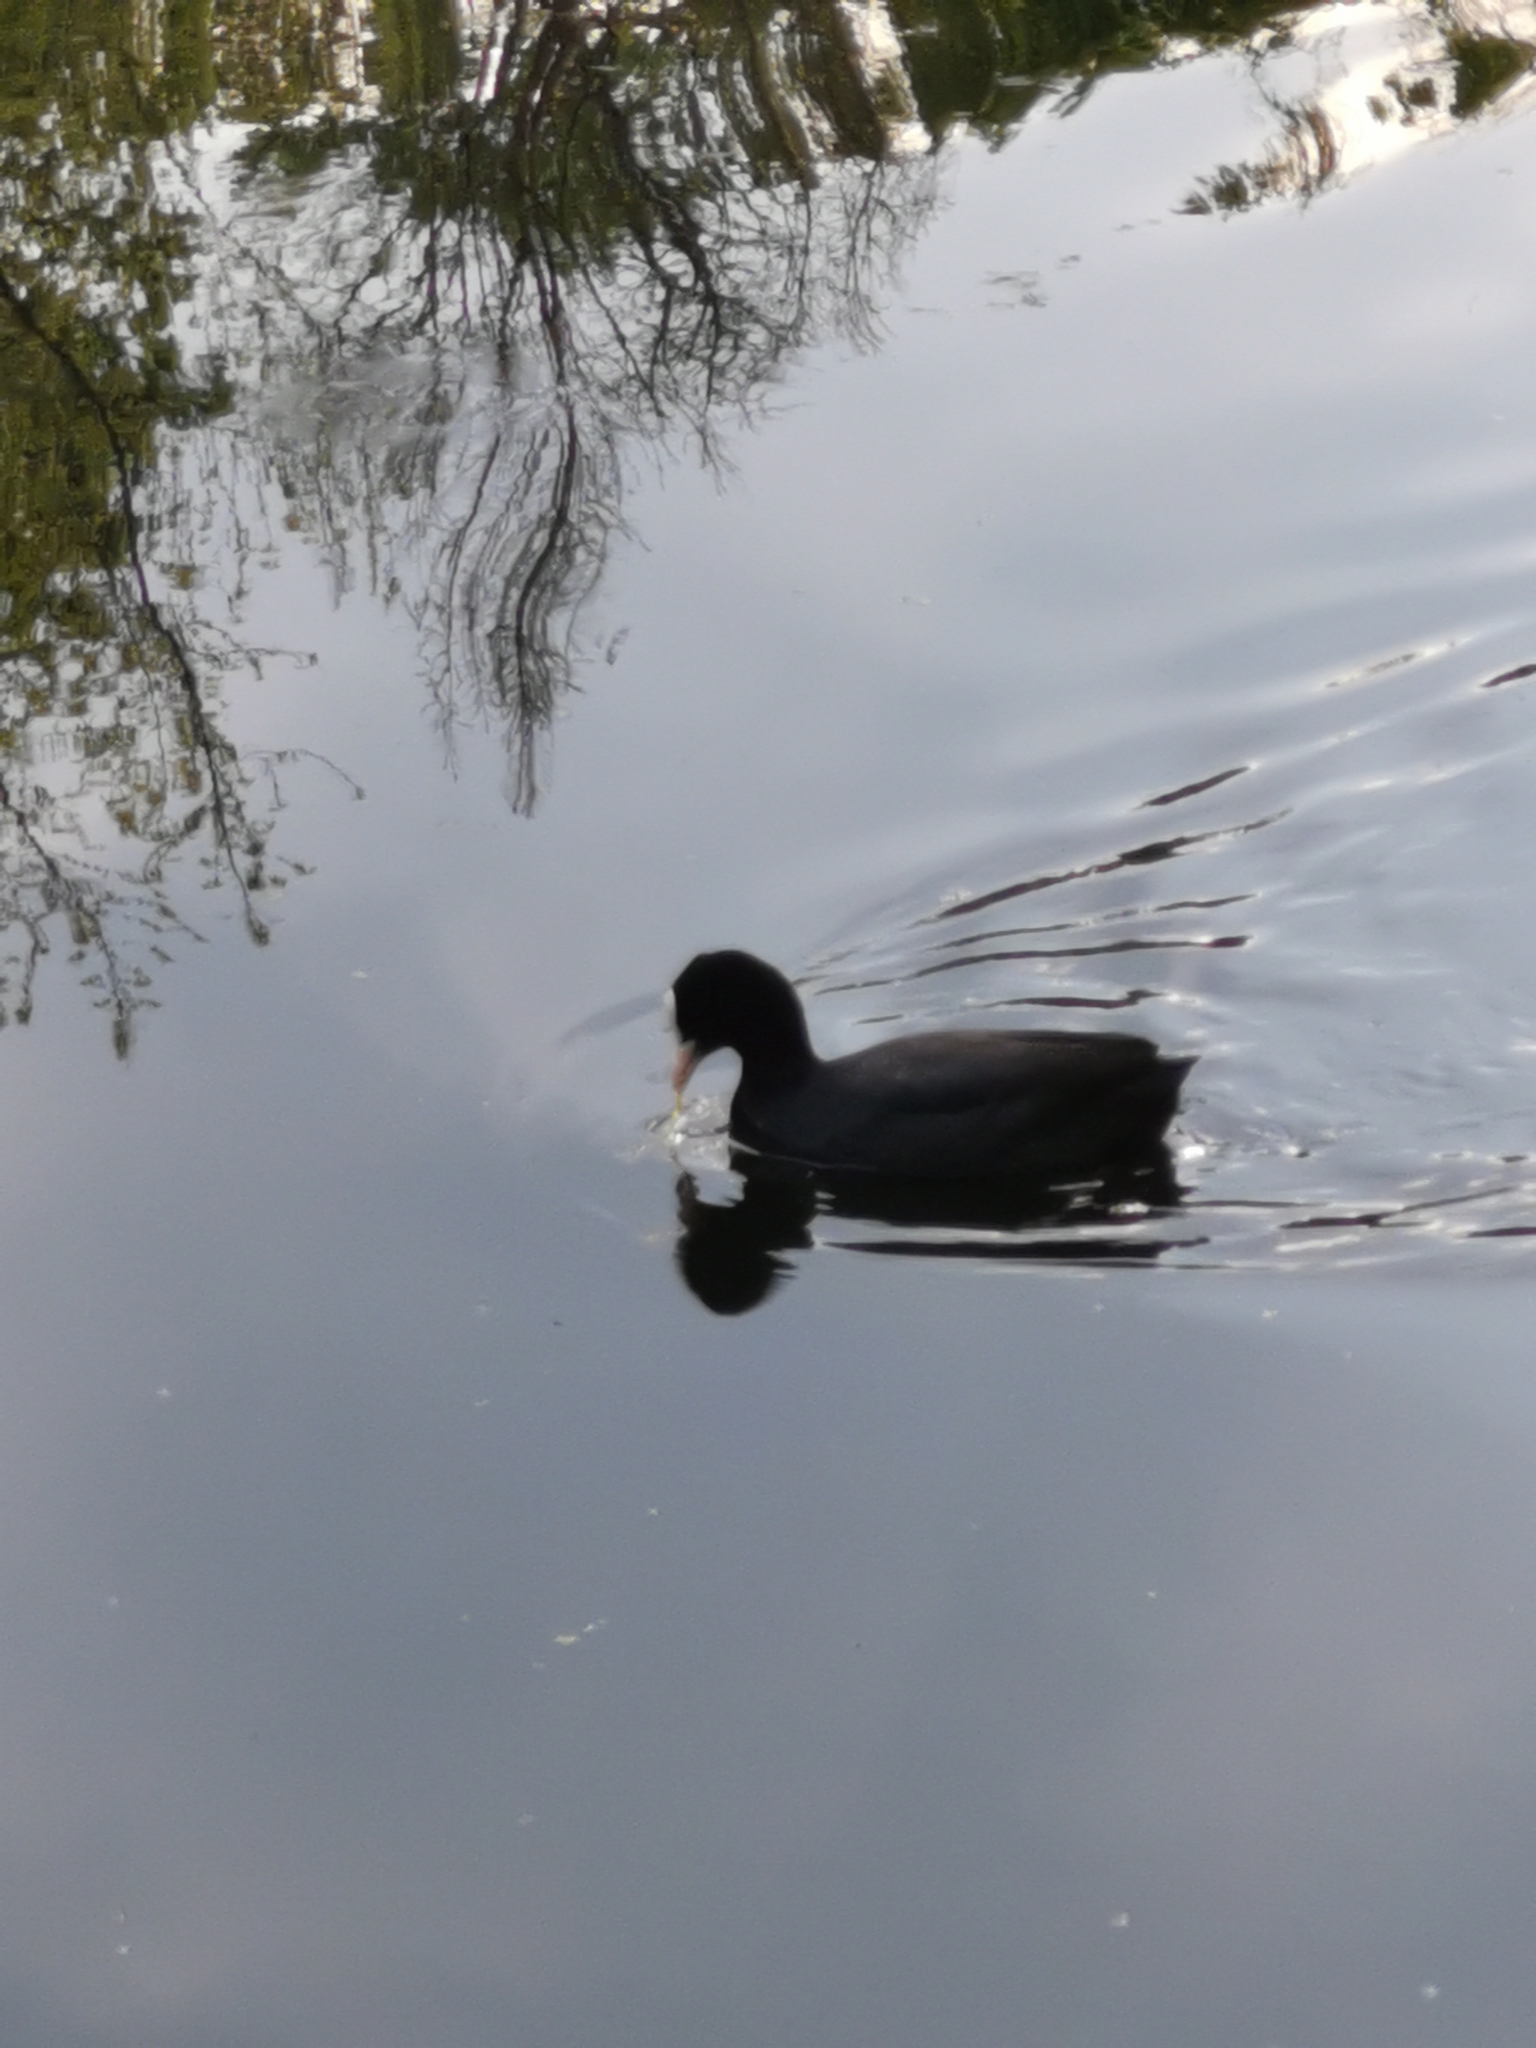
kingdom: Animalia
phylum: Chordata
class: Aves
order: Gruiformes
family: Rallidae
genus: Fulica
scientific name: Fulica atra
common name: Eurasian coot
